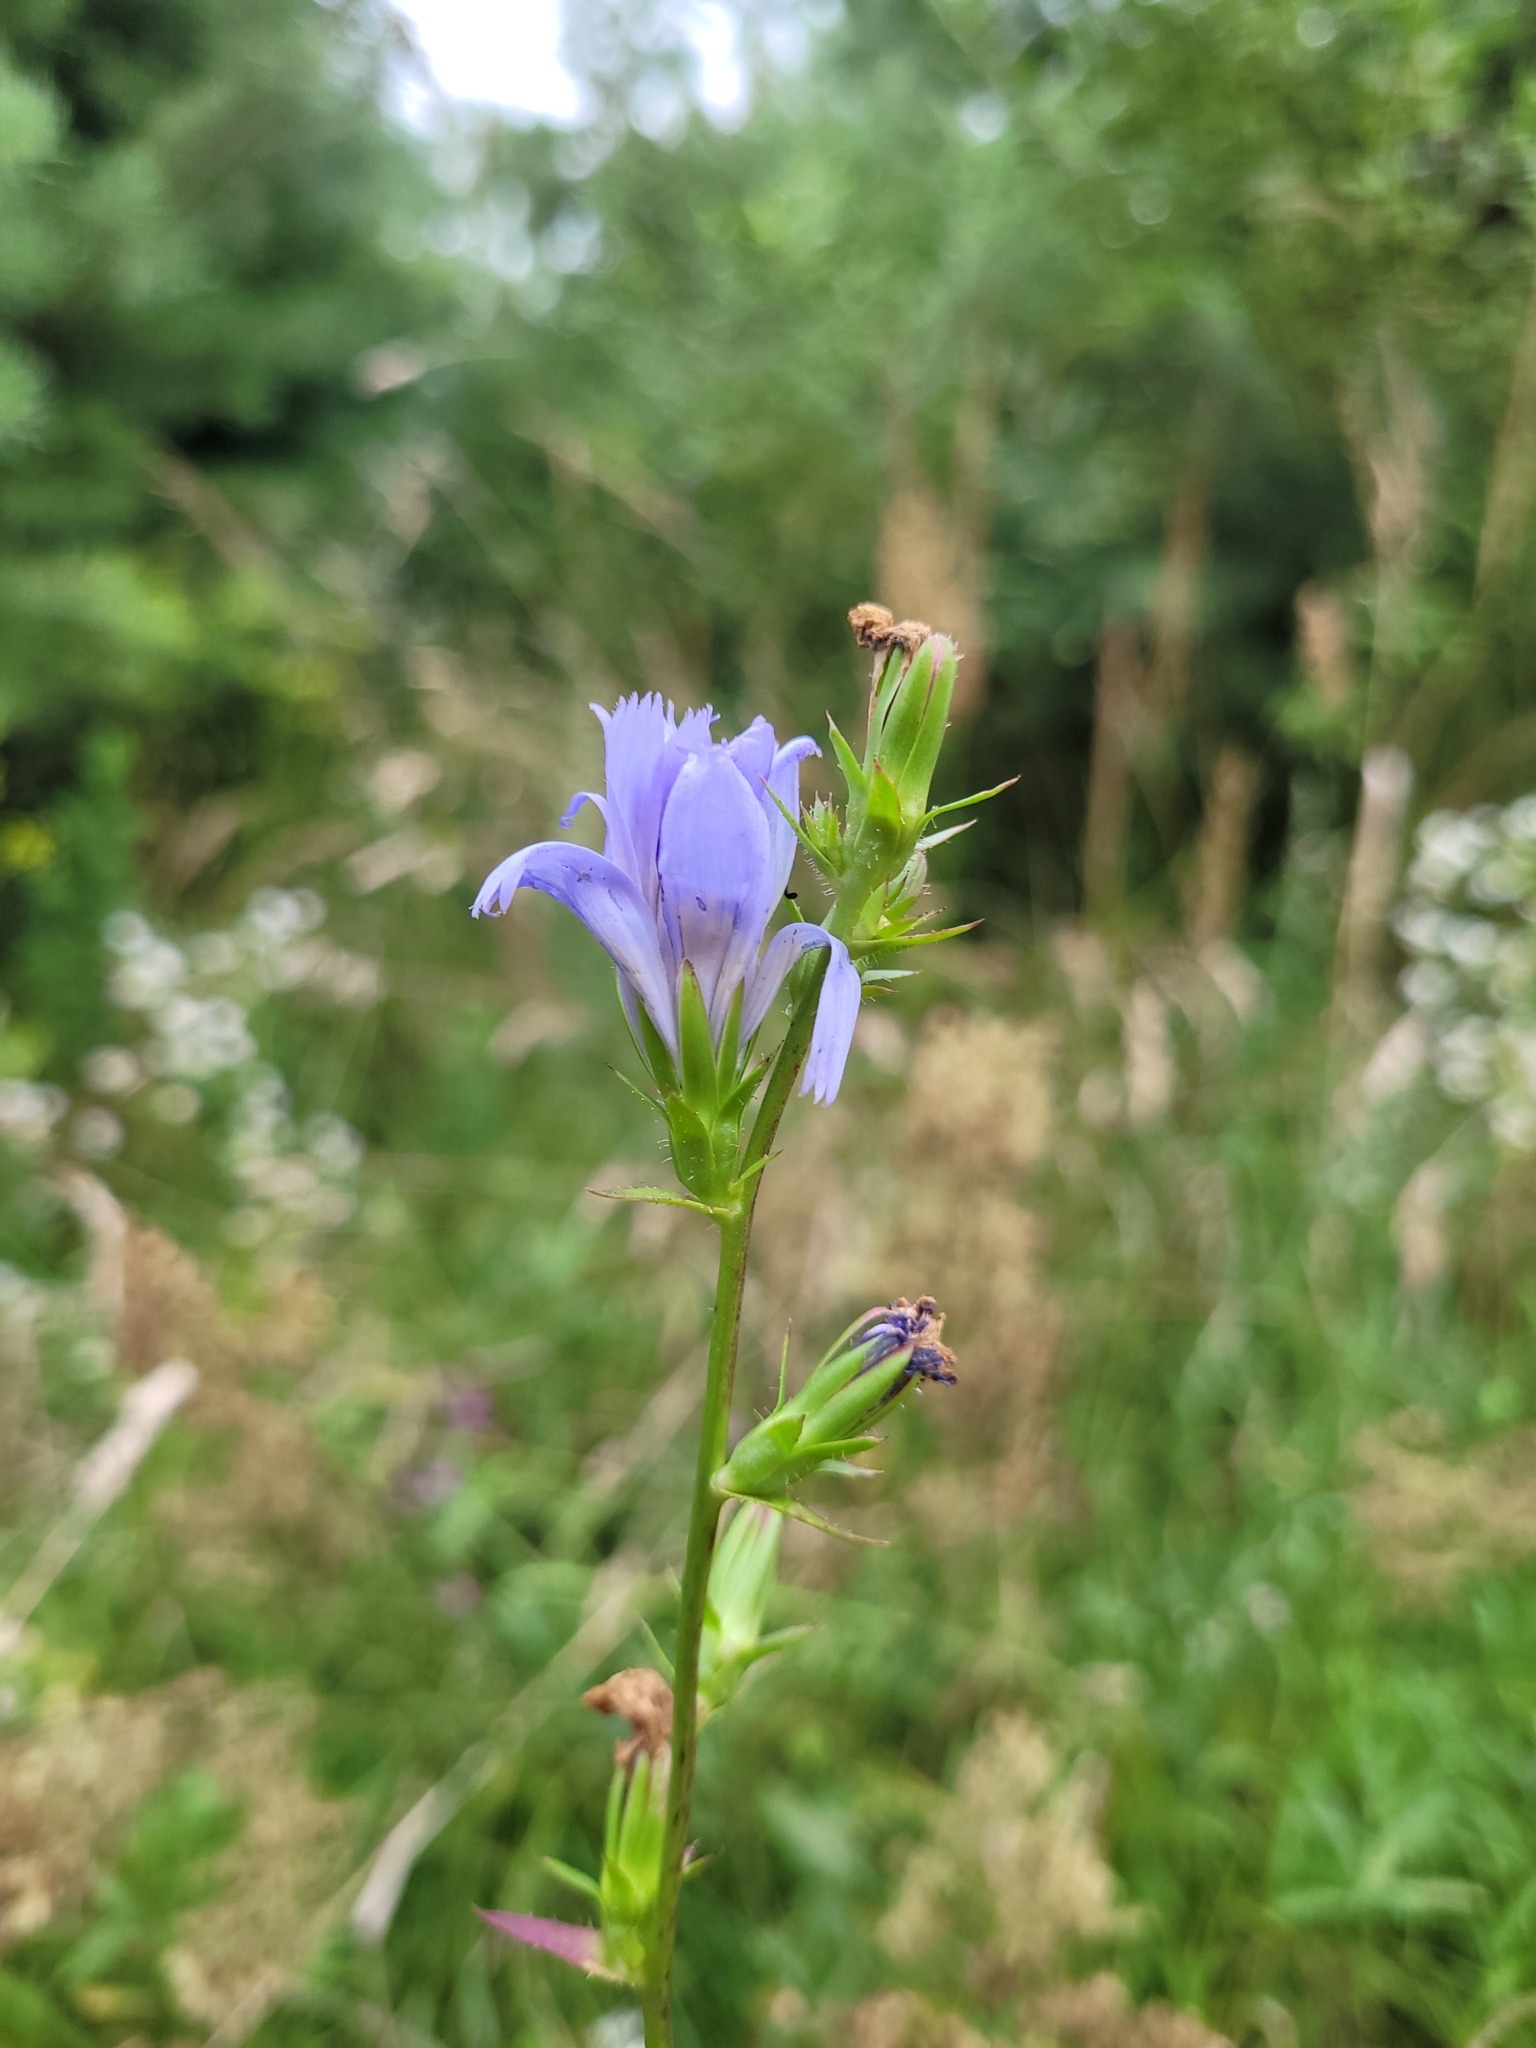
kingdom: Plantae
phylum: Tracheophyta
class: Magnoliopsida
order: Asterales
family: Asteraceae
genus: Cichorium
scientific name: Cichorium intybus
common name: Chicory
